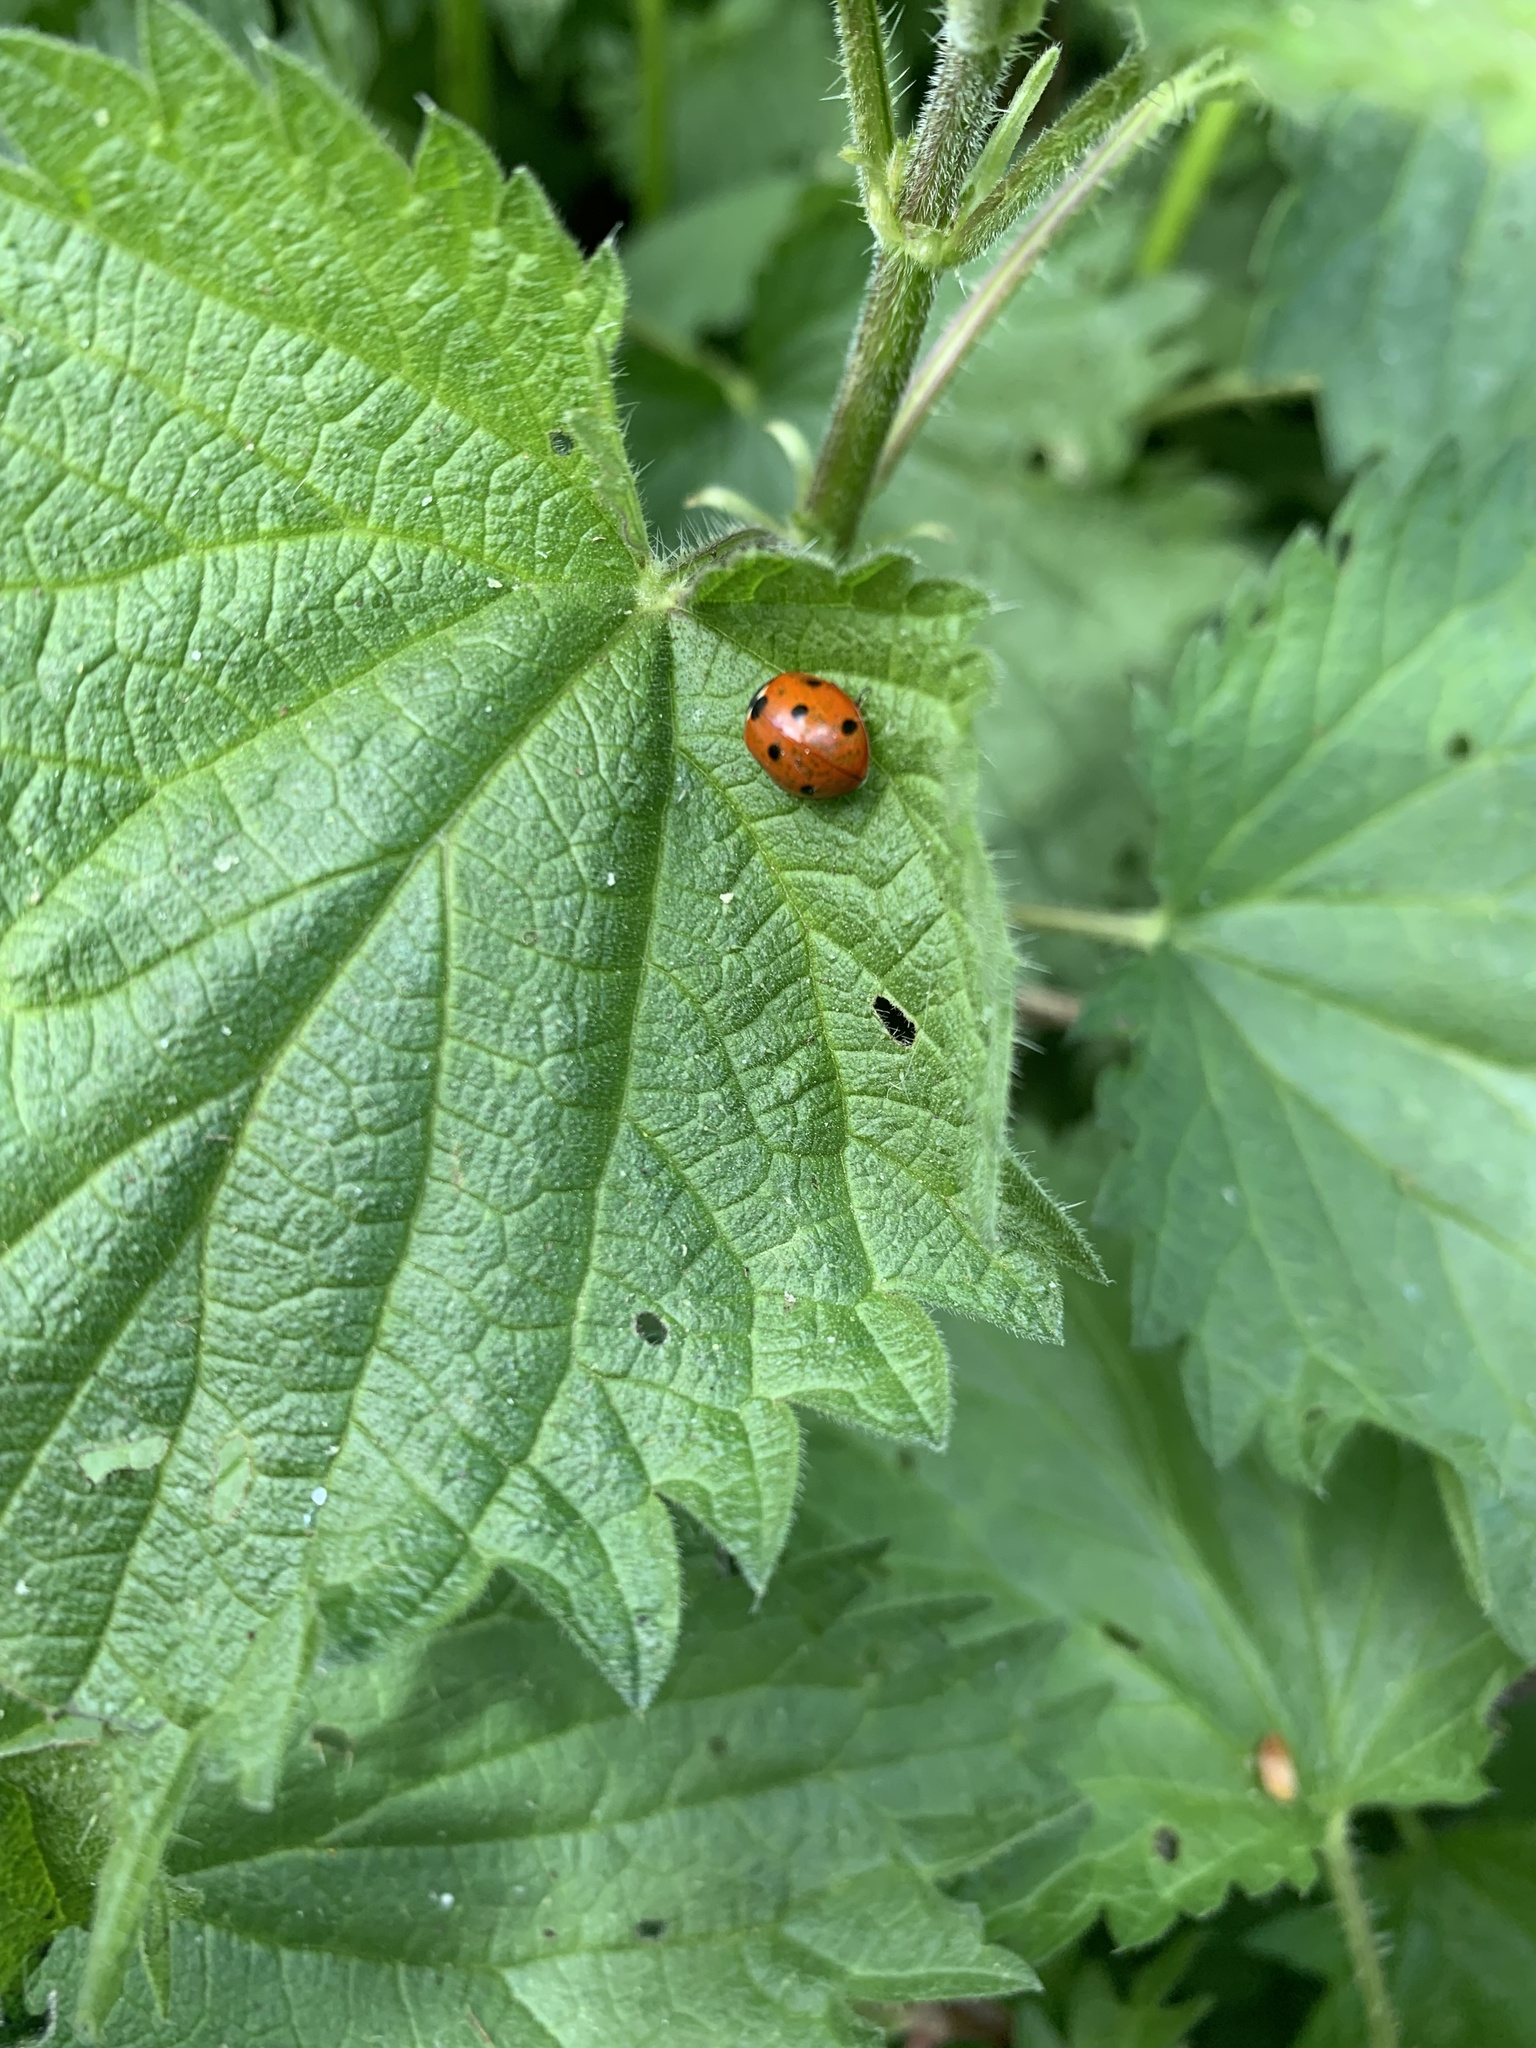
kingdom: Animalia
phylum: Arthropoda
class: Insecta
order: Coleoptera
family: Coccinellidae
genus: Coccinella
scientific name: Coccinella septempunctata
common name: Sevenspotted lady beetle
